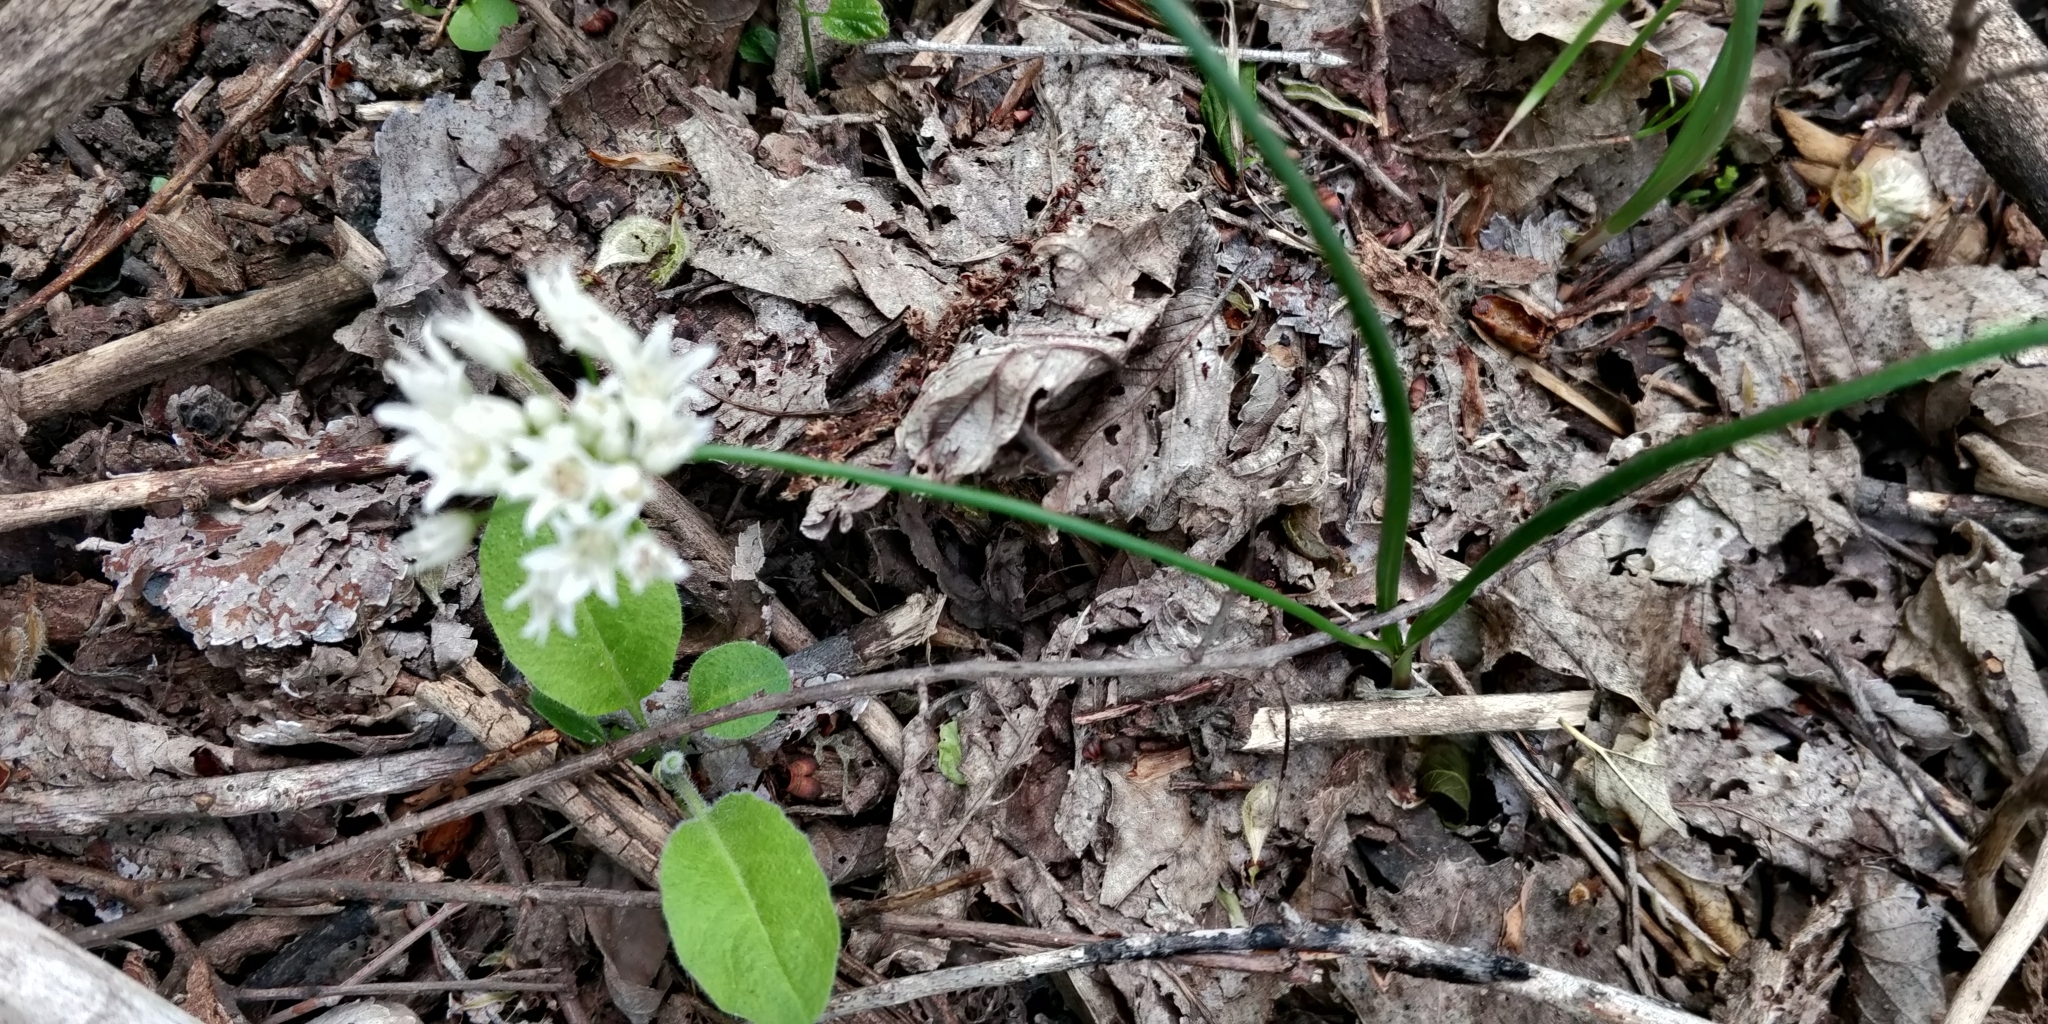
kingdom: Plantae
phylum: Tracheophyta
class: Liliopsida
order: Asparagales
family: Amaryllidaceae
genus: Allium
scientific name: Allium textile
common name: Prairie onion
